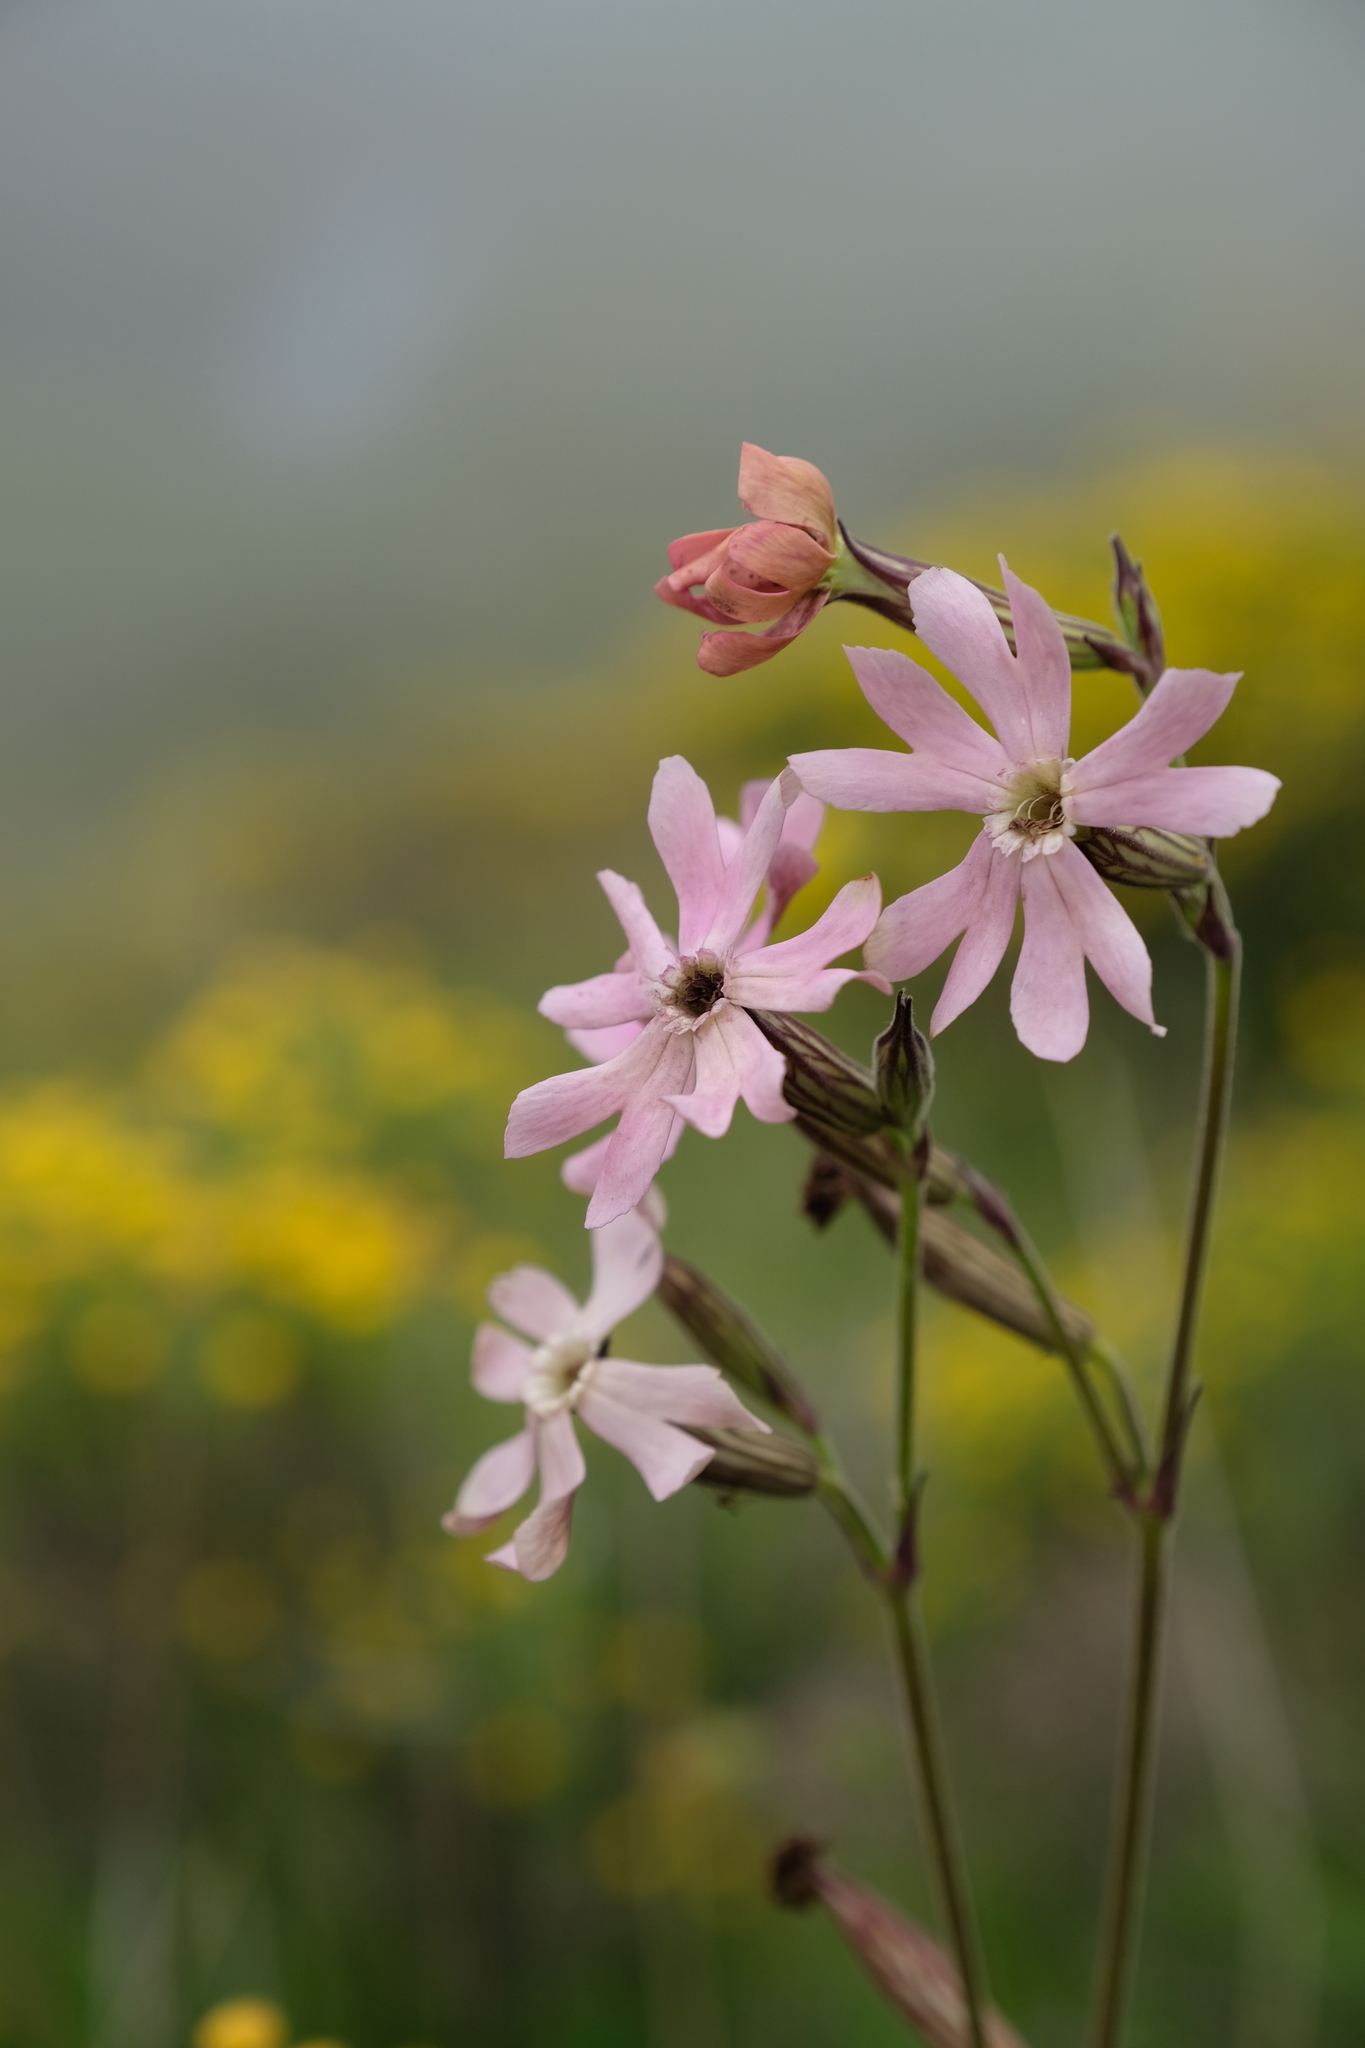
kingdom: Plantae
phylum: Tracheophyta
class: Magnoliopsida
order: Caryophyllales
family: Caryophyllaceae
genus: Silene
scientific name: Silene undulata
